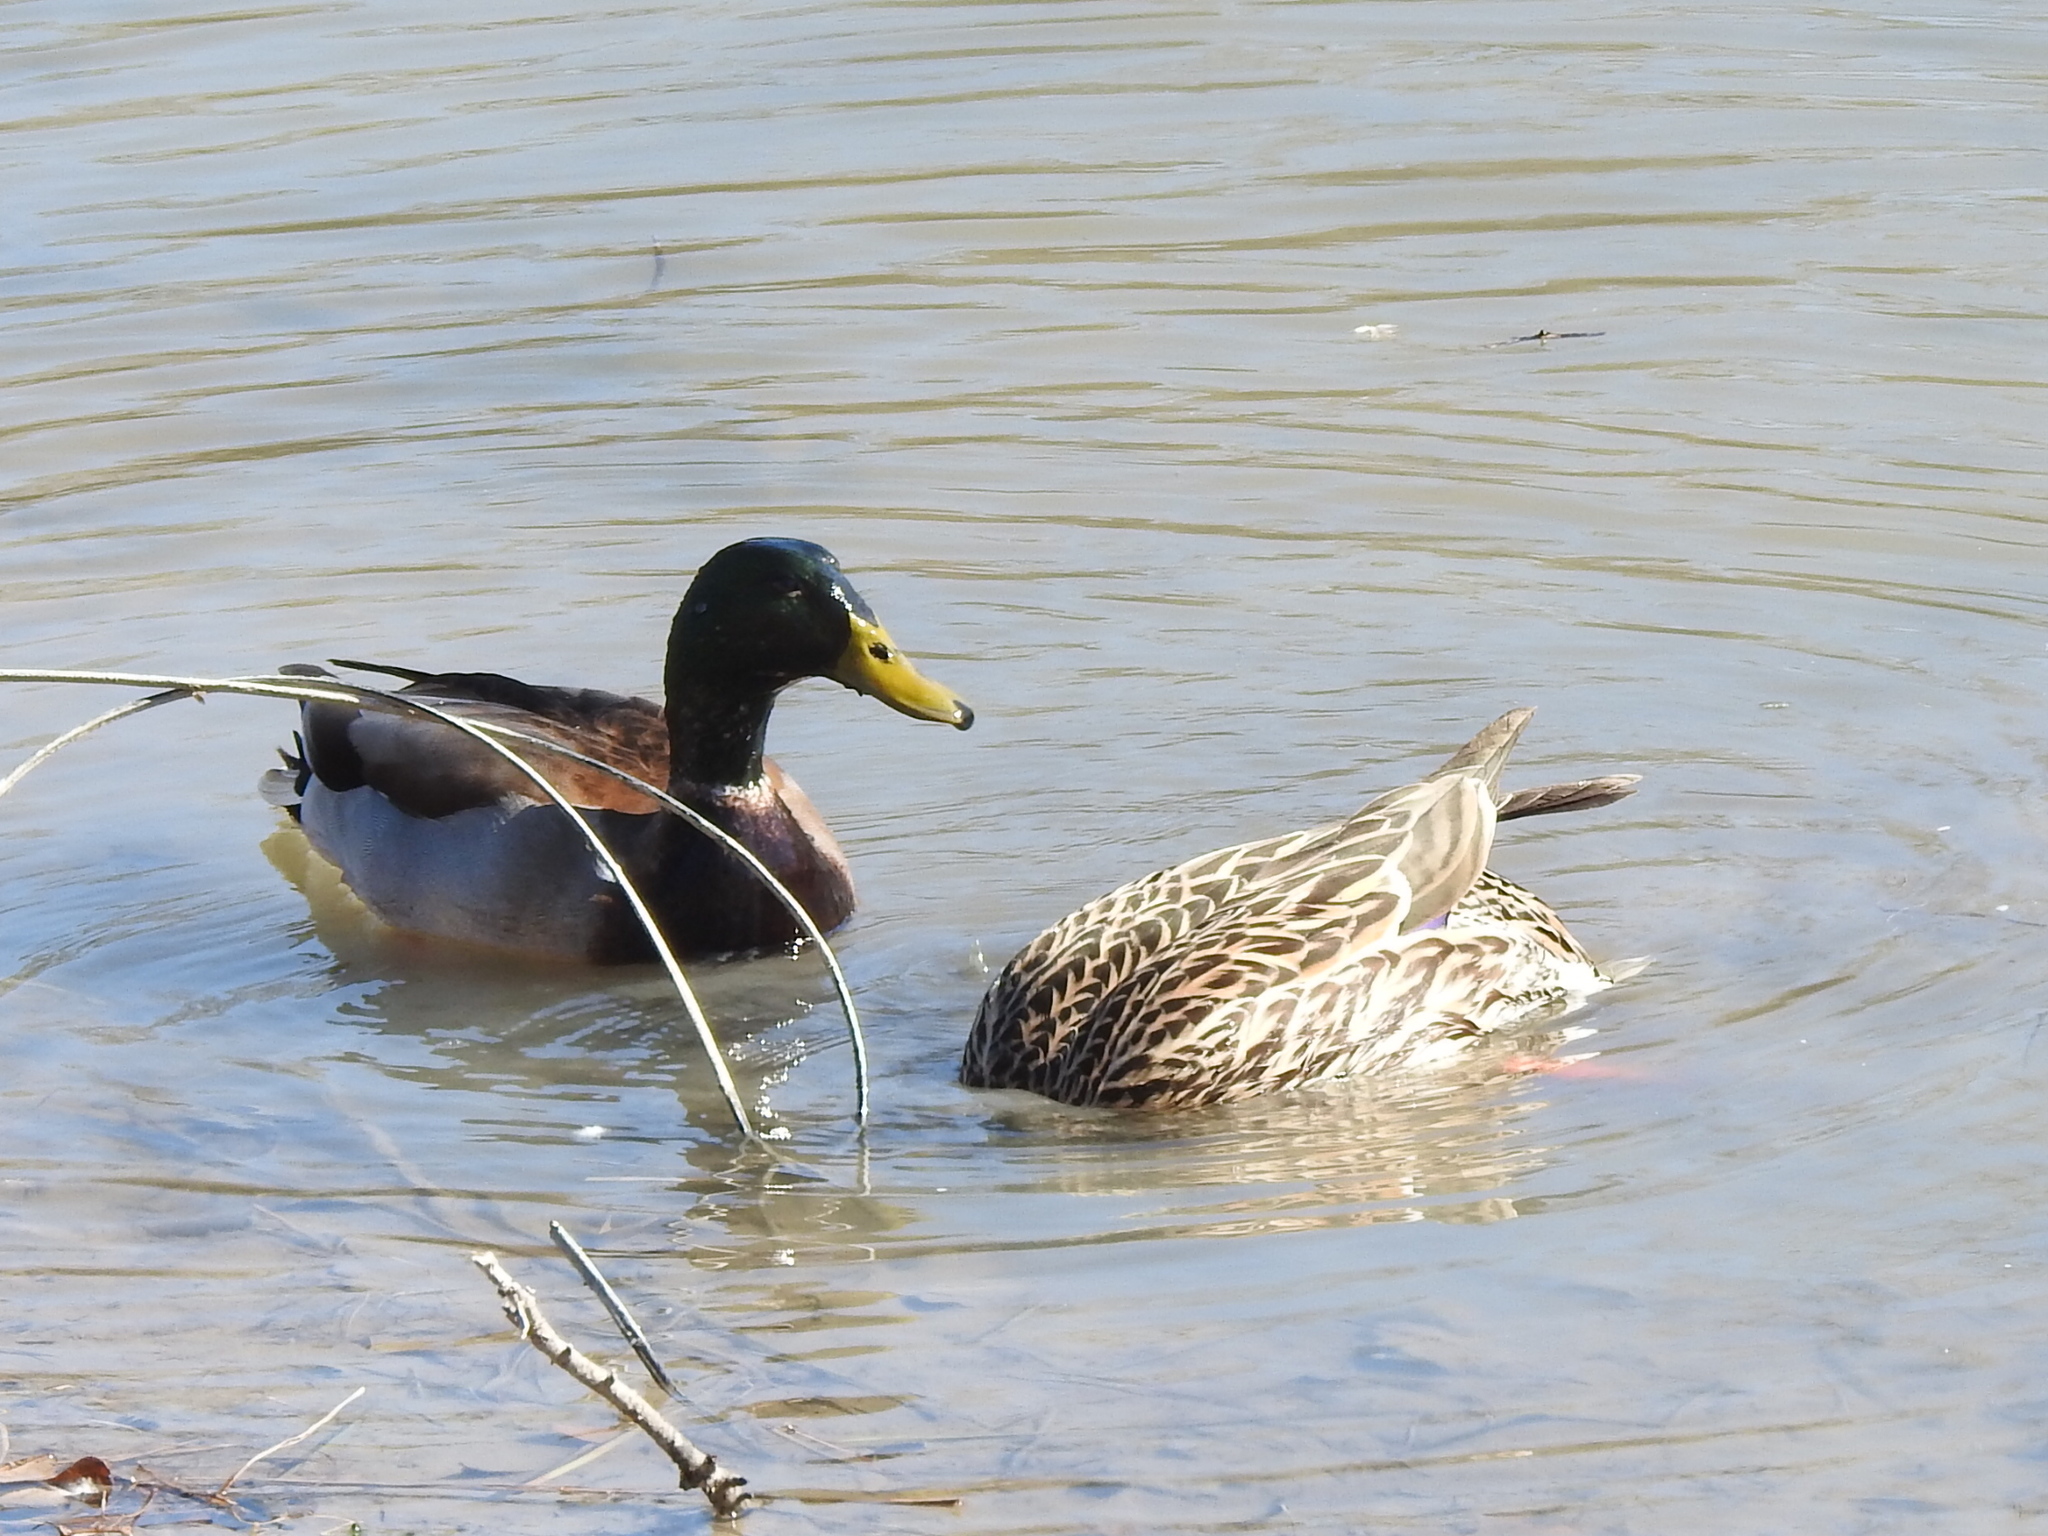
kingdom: Animalia
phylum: Chordata
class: Aves
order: Anseriformes
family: Anatidae
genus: Anas
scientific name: Anas platyrhynchos
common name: Mallard
